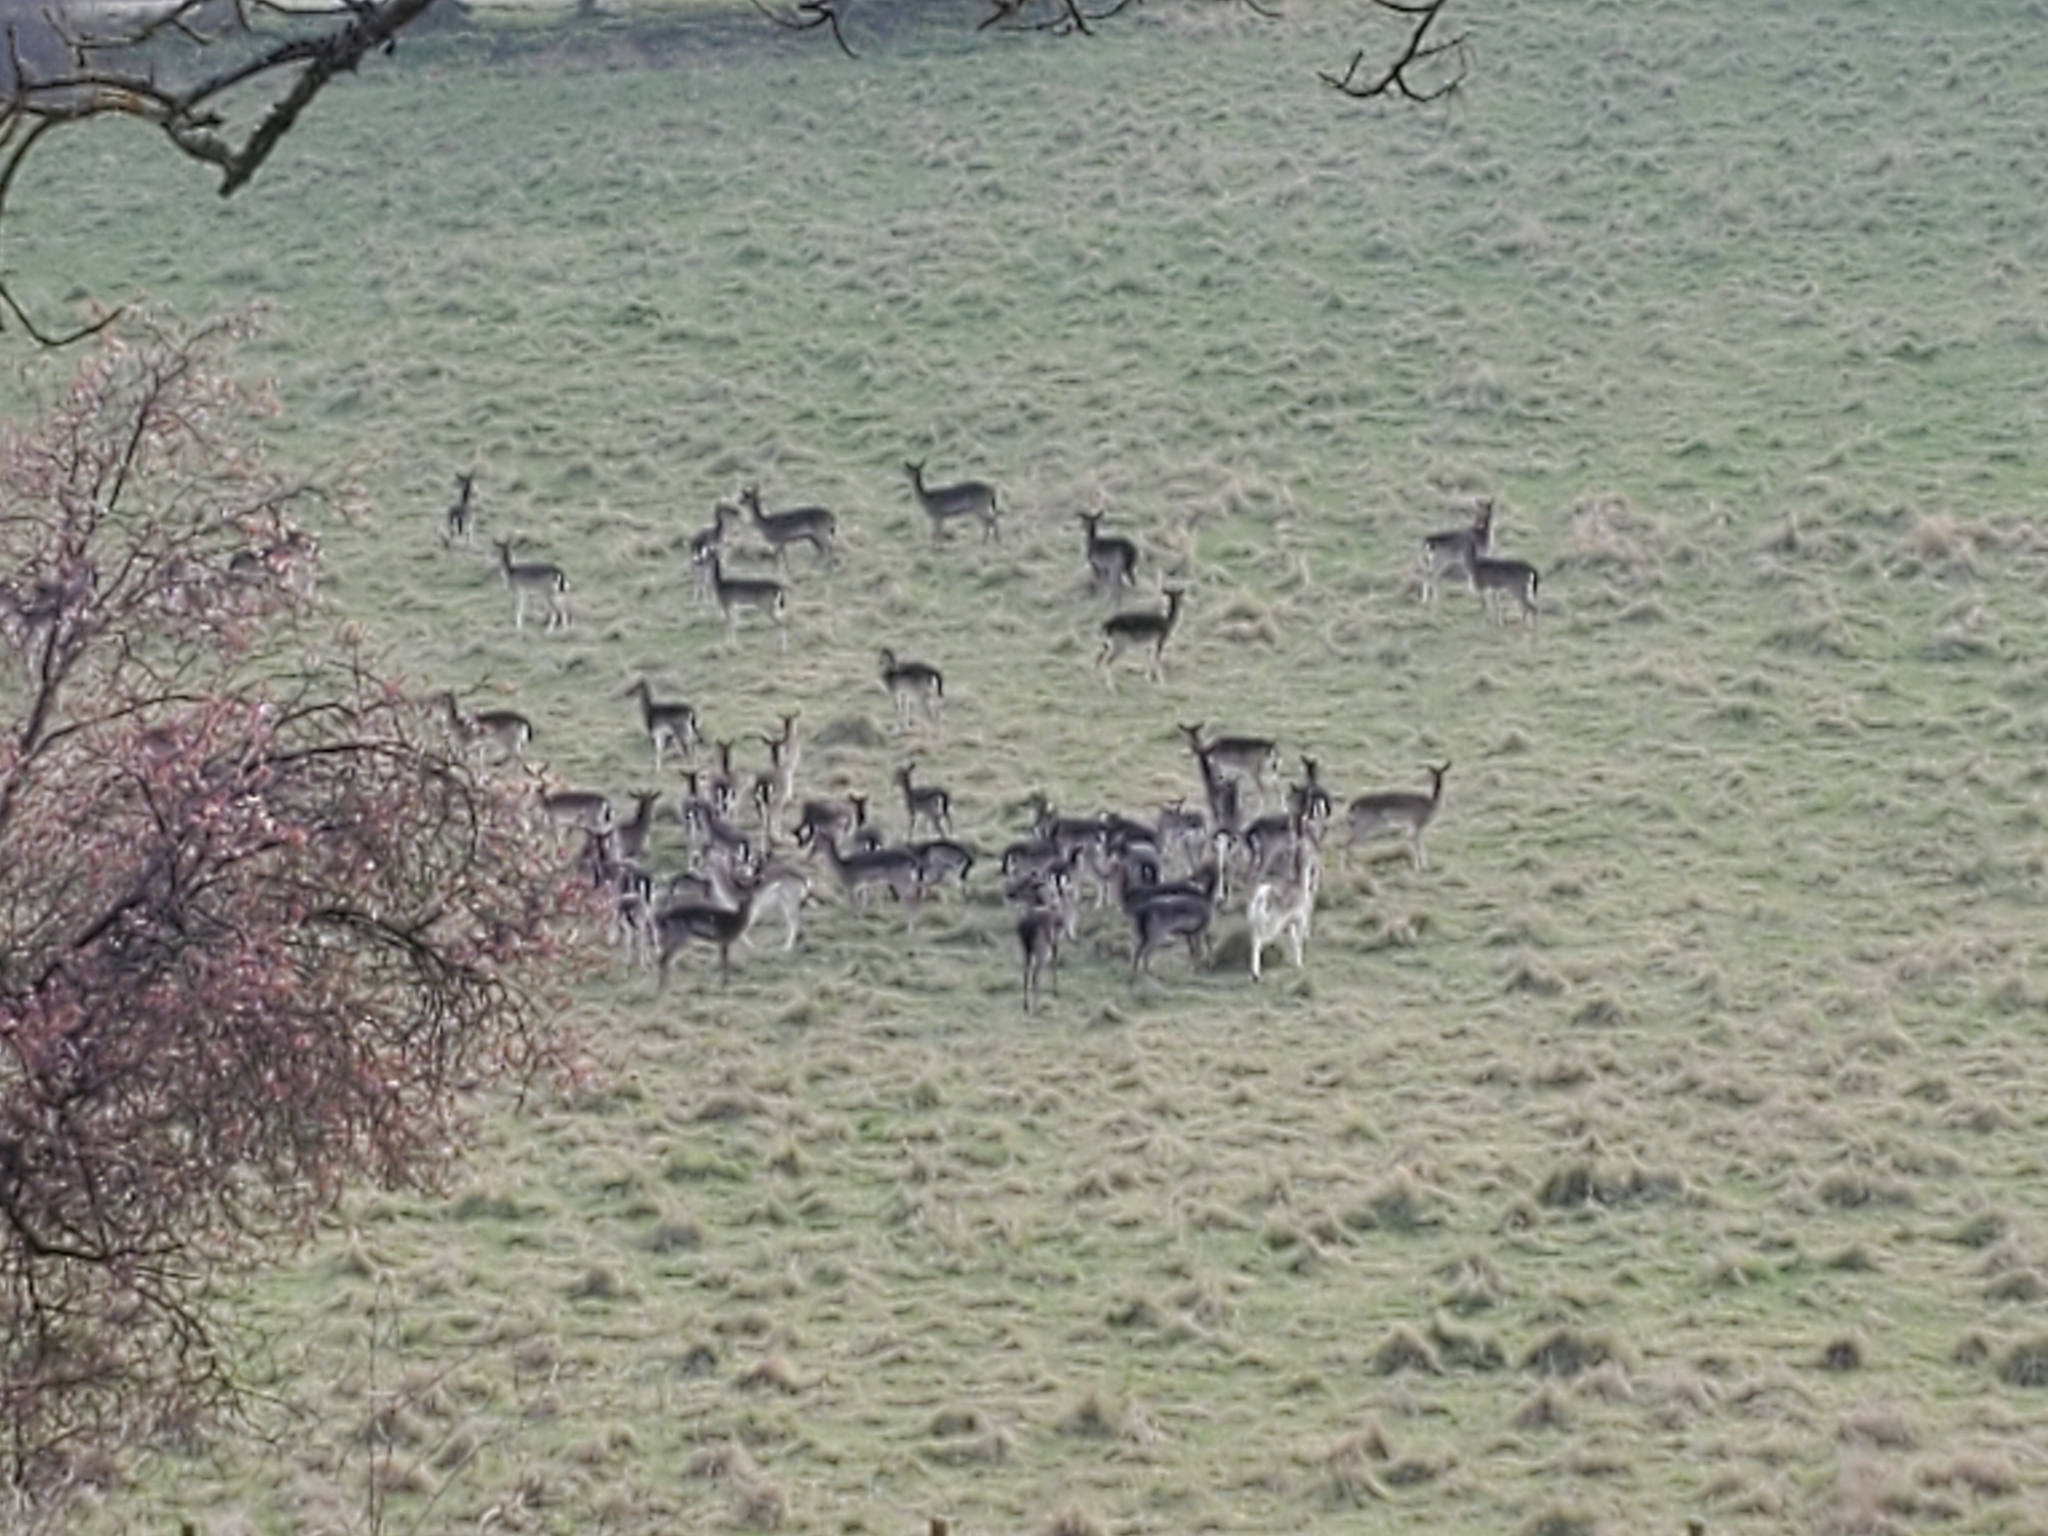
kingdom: Animalia
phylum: Chordata
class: Mammalia
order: Artiodactyla
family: Cervidae
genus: Dama
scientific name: Dama dama
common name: Fallow deer
